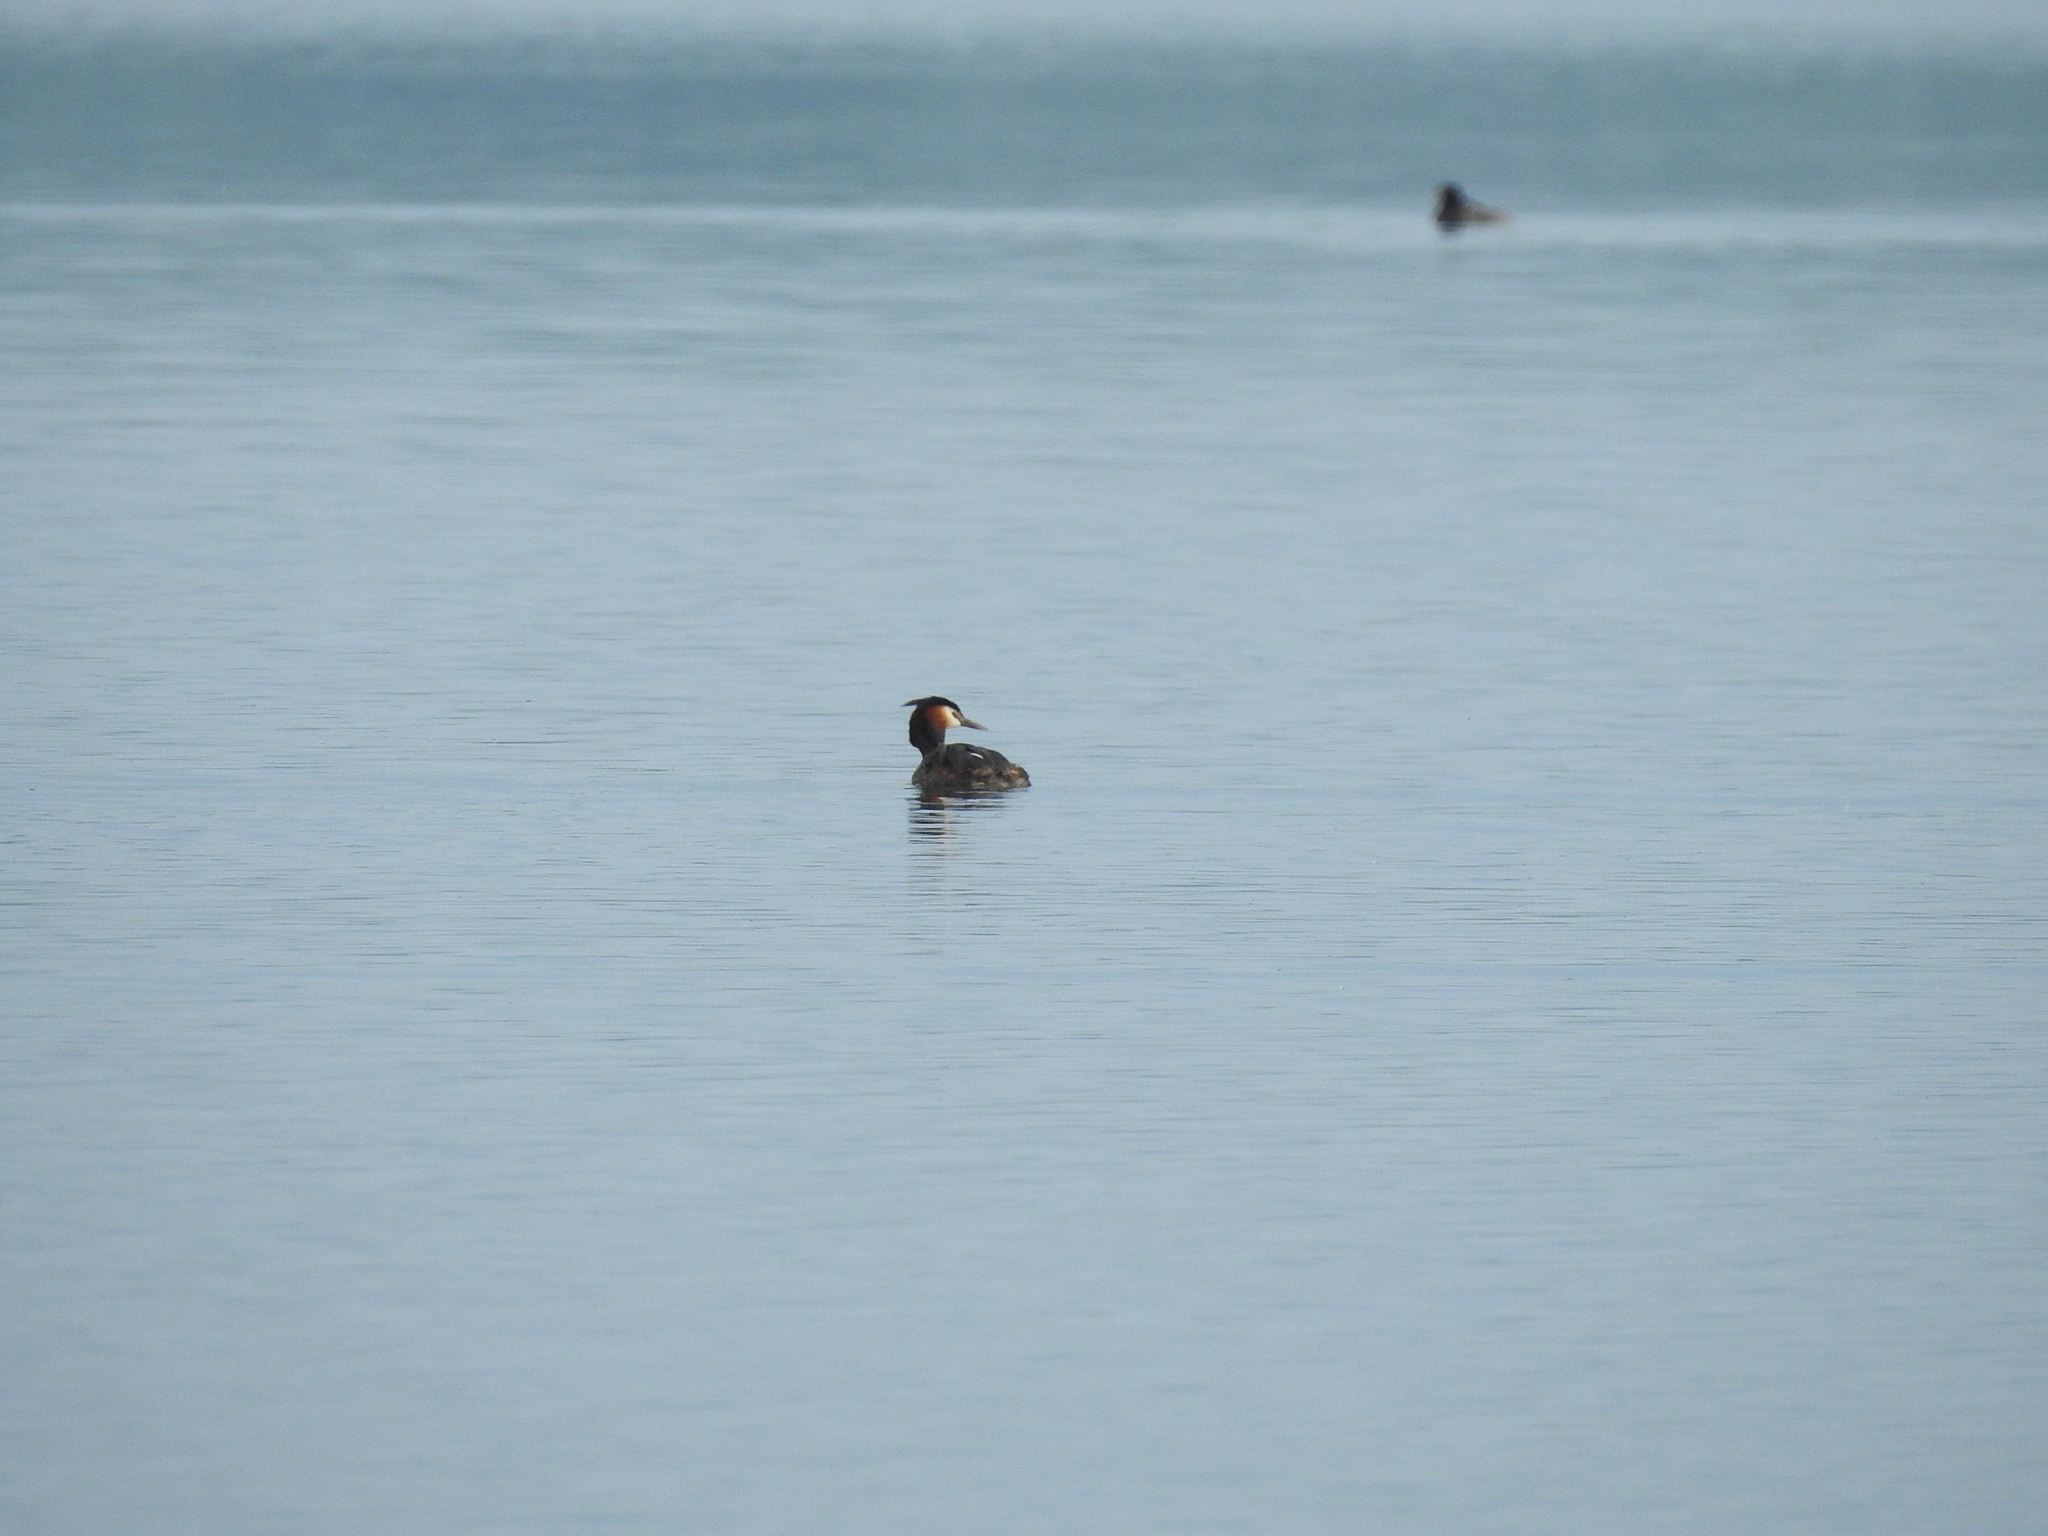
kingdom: Animalia
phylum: Chordata
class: Aves
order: Podicipediformes
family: Podicipedidae
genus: Podiceps
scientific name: Podiceps cristatus
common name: Great crested grebe
